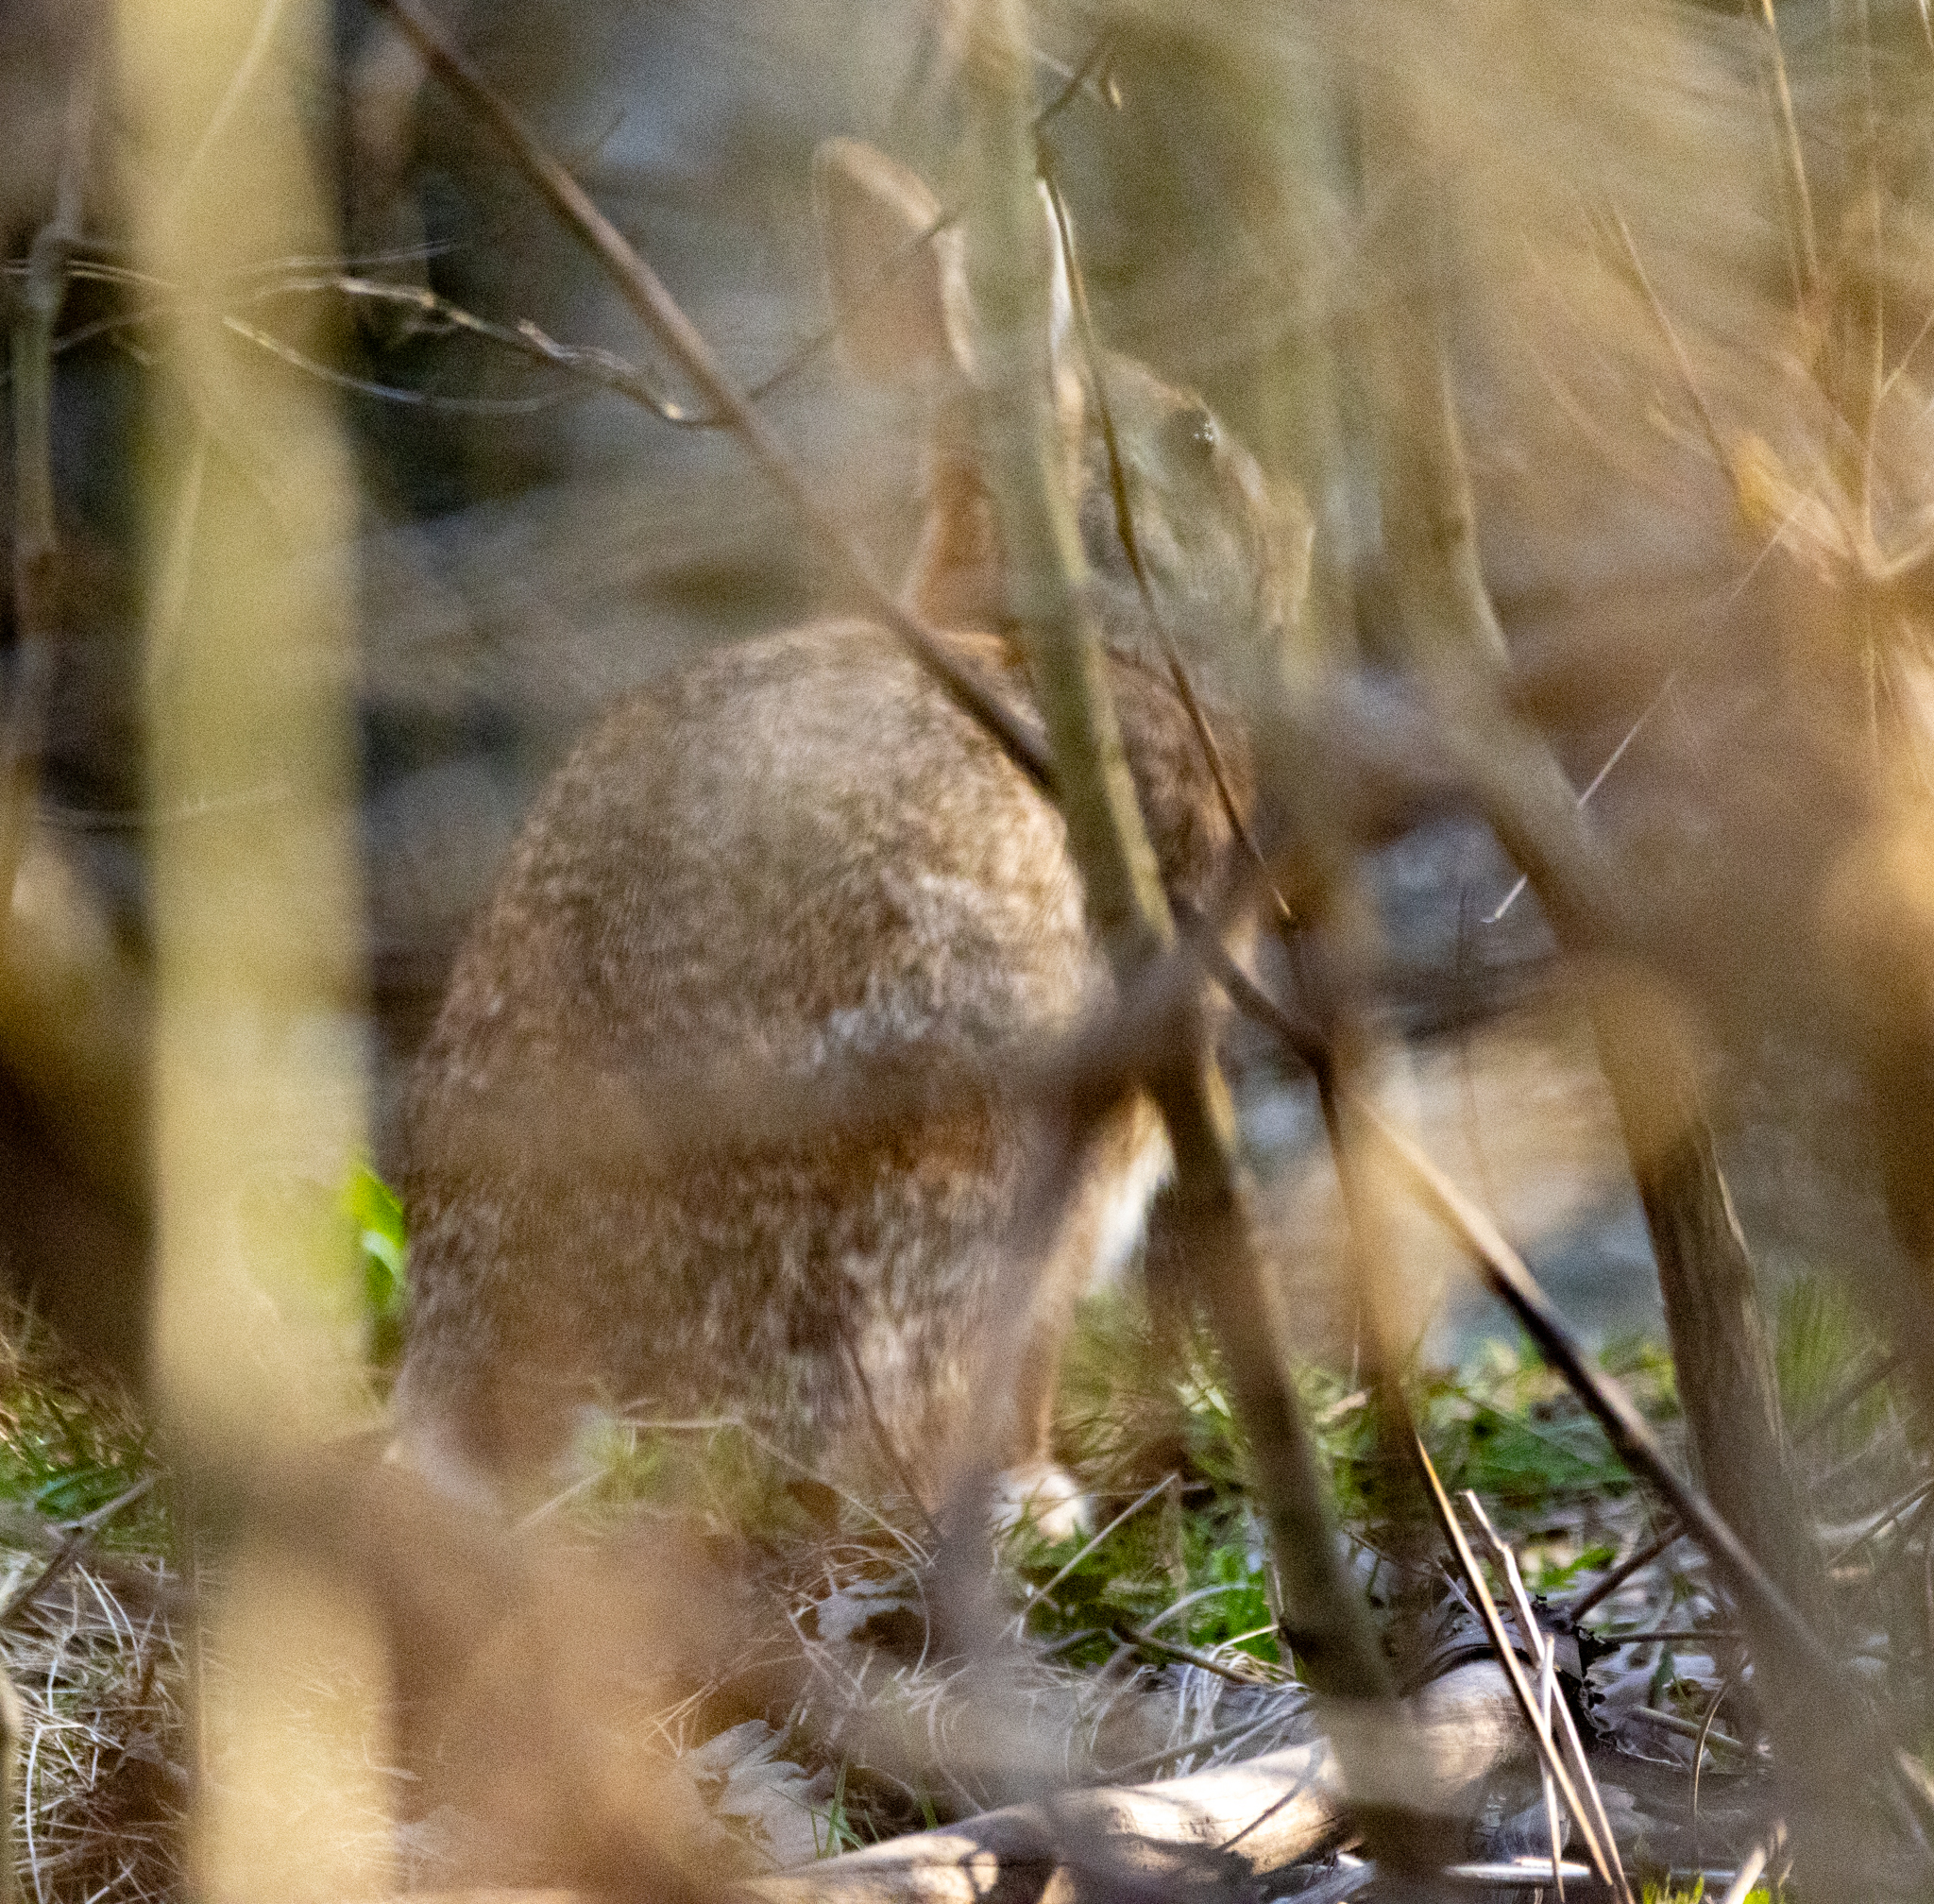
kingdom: Animalia
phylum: Chordata
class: Mammalia
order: Lagomorpha
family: Leporidae
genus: Sylvilagus
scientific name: Sylvilagus floridanus
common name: Eastern cottontail
